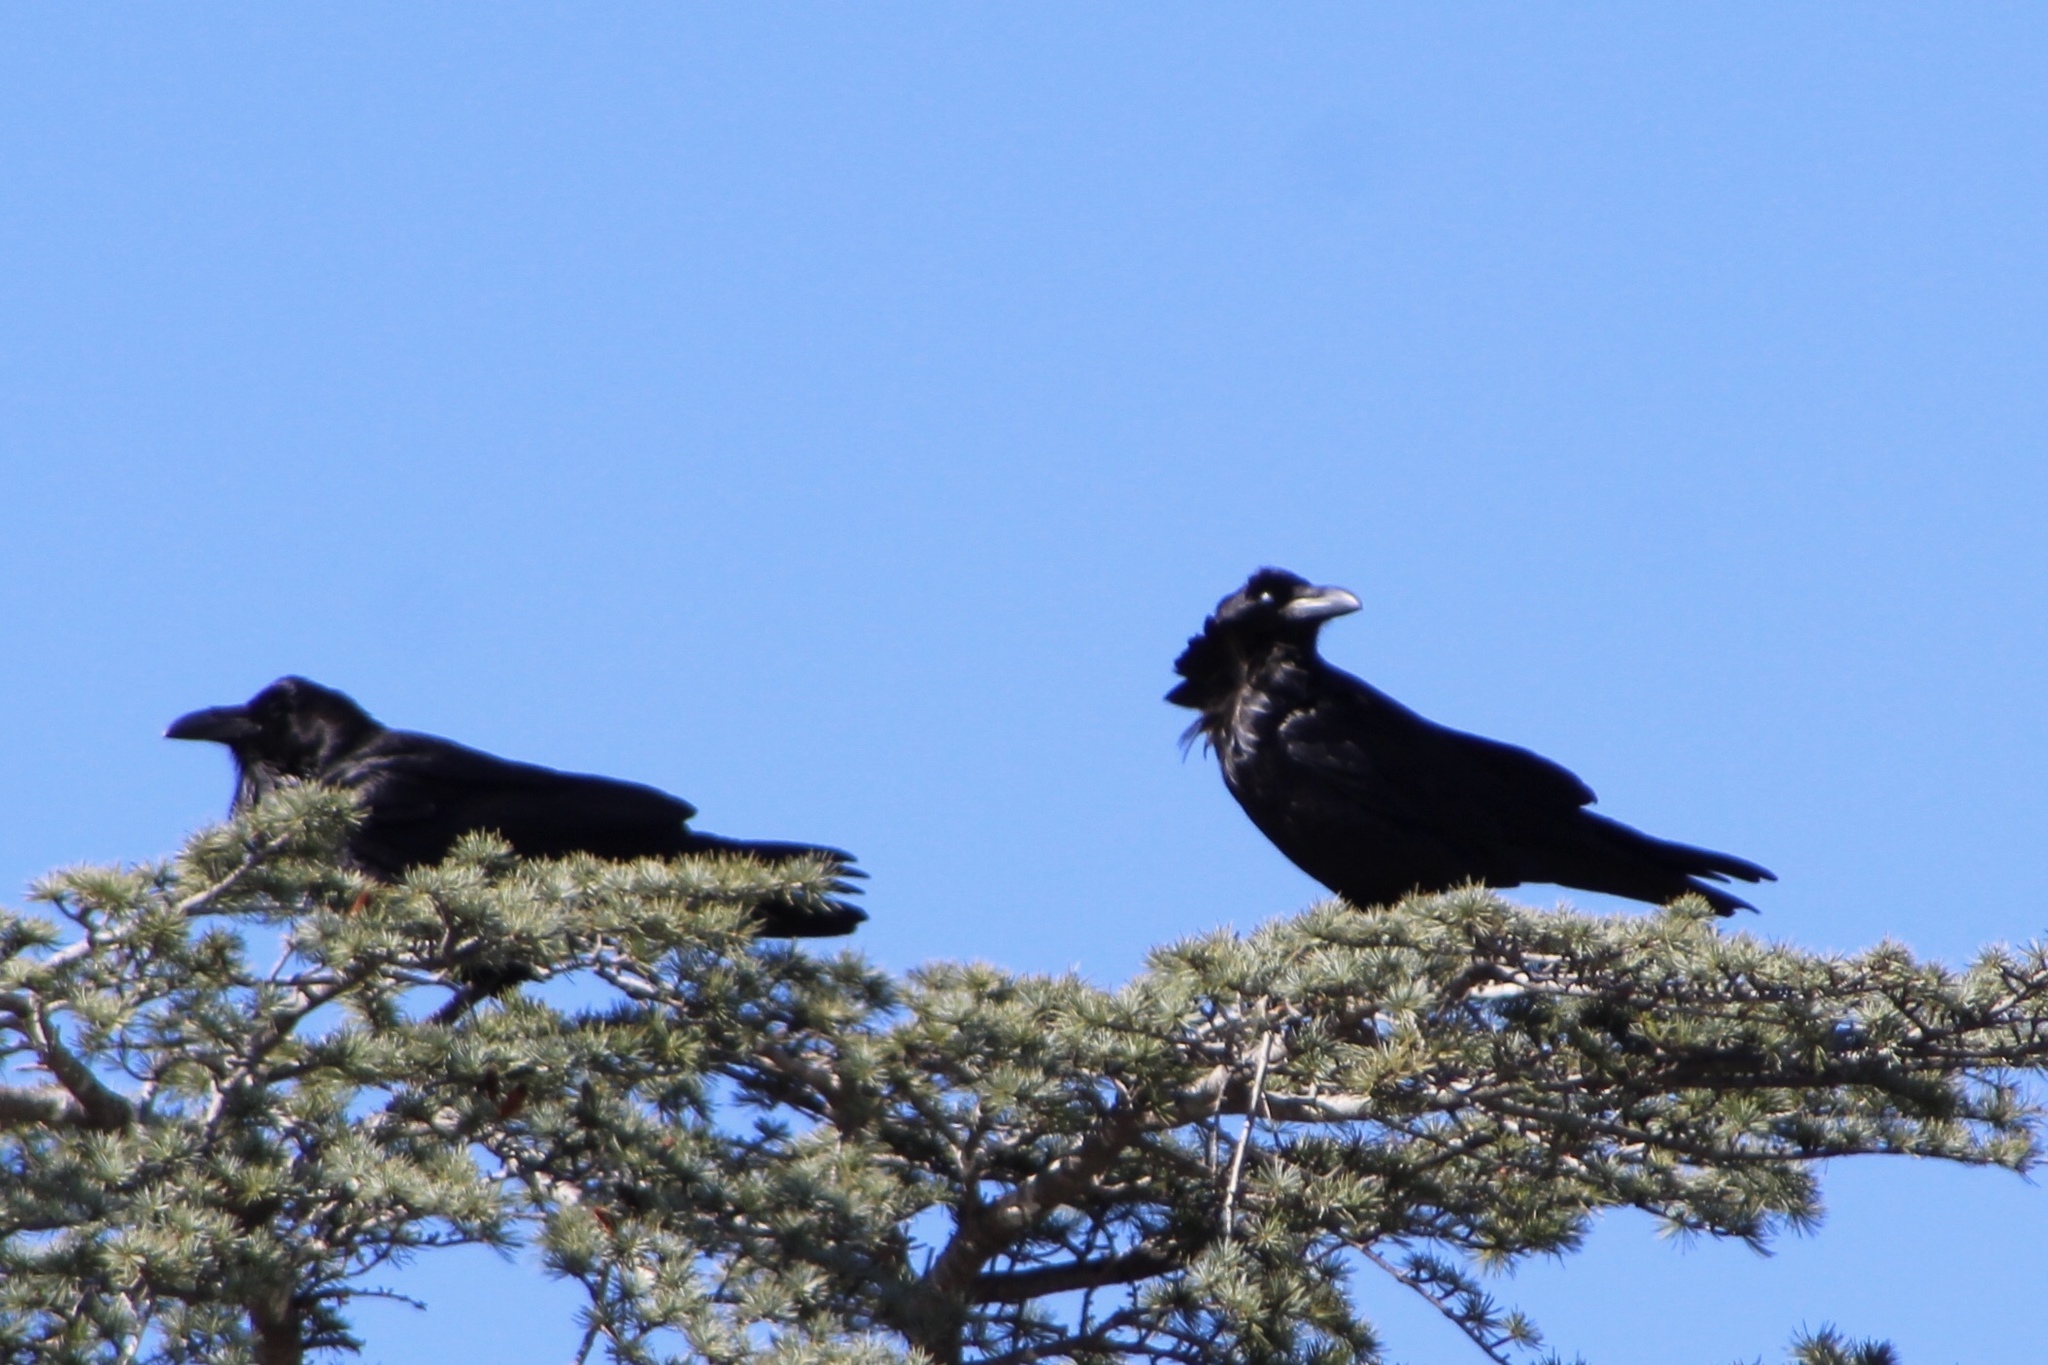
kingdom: Animalia
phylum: Chordata
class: Aves
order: Passeriformes
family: Corvidae
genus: Corvus
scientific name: Corvus corax
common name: Common raven
